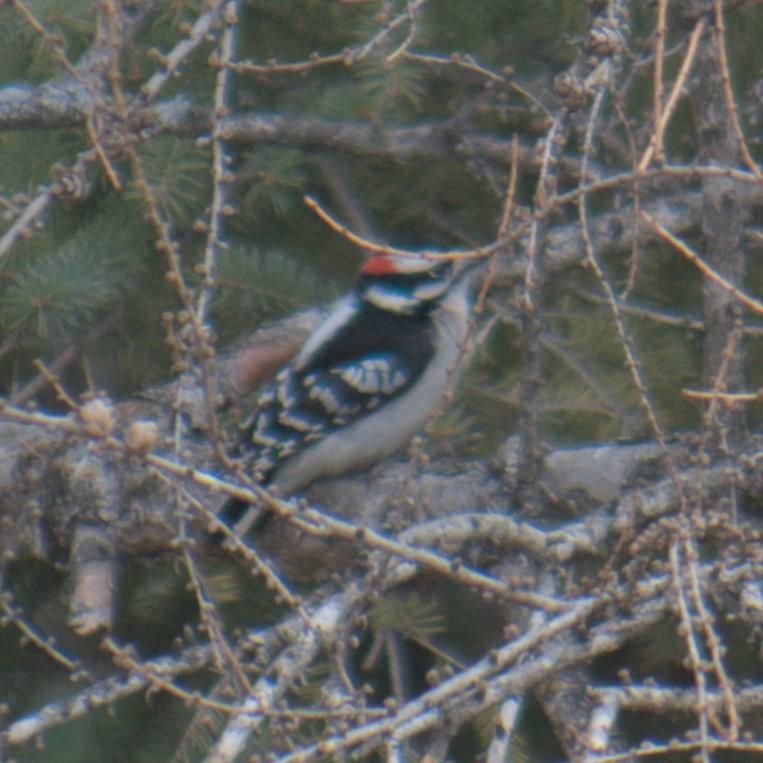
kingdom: Animalia
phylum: Chordata
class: Aves
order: Piciformes
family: Picidae
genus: Dryobates
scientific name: Dryobates pubescens
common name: Downy woodpecker
